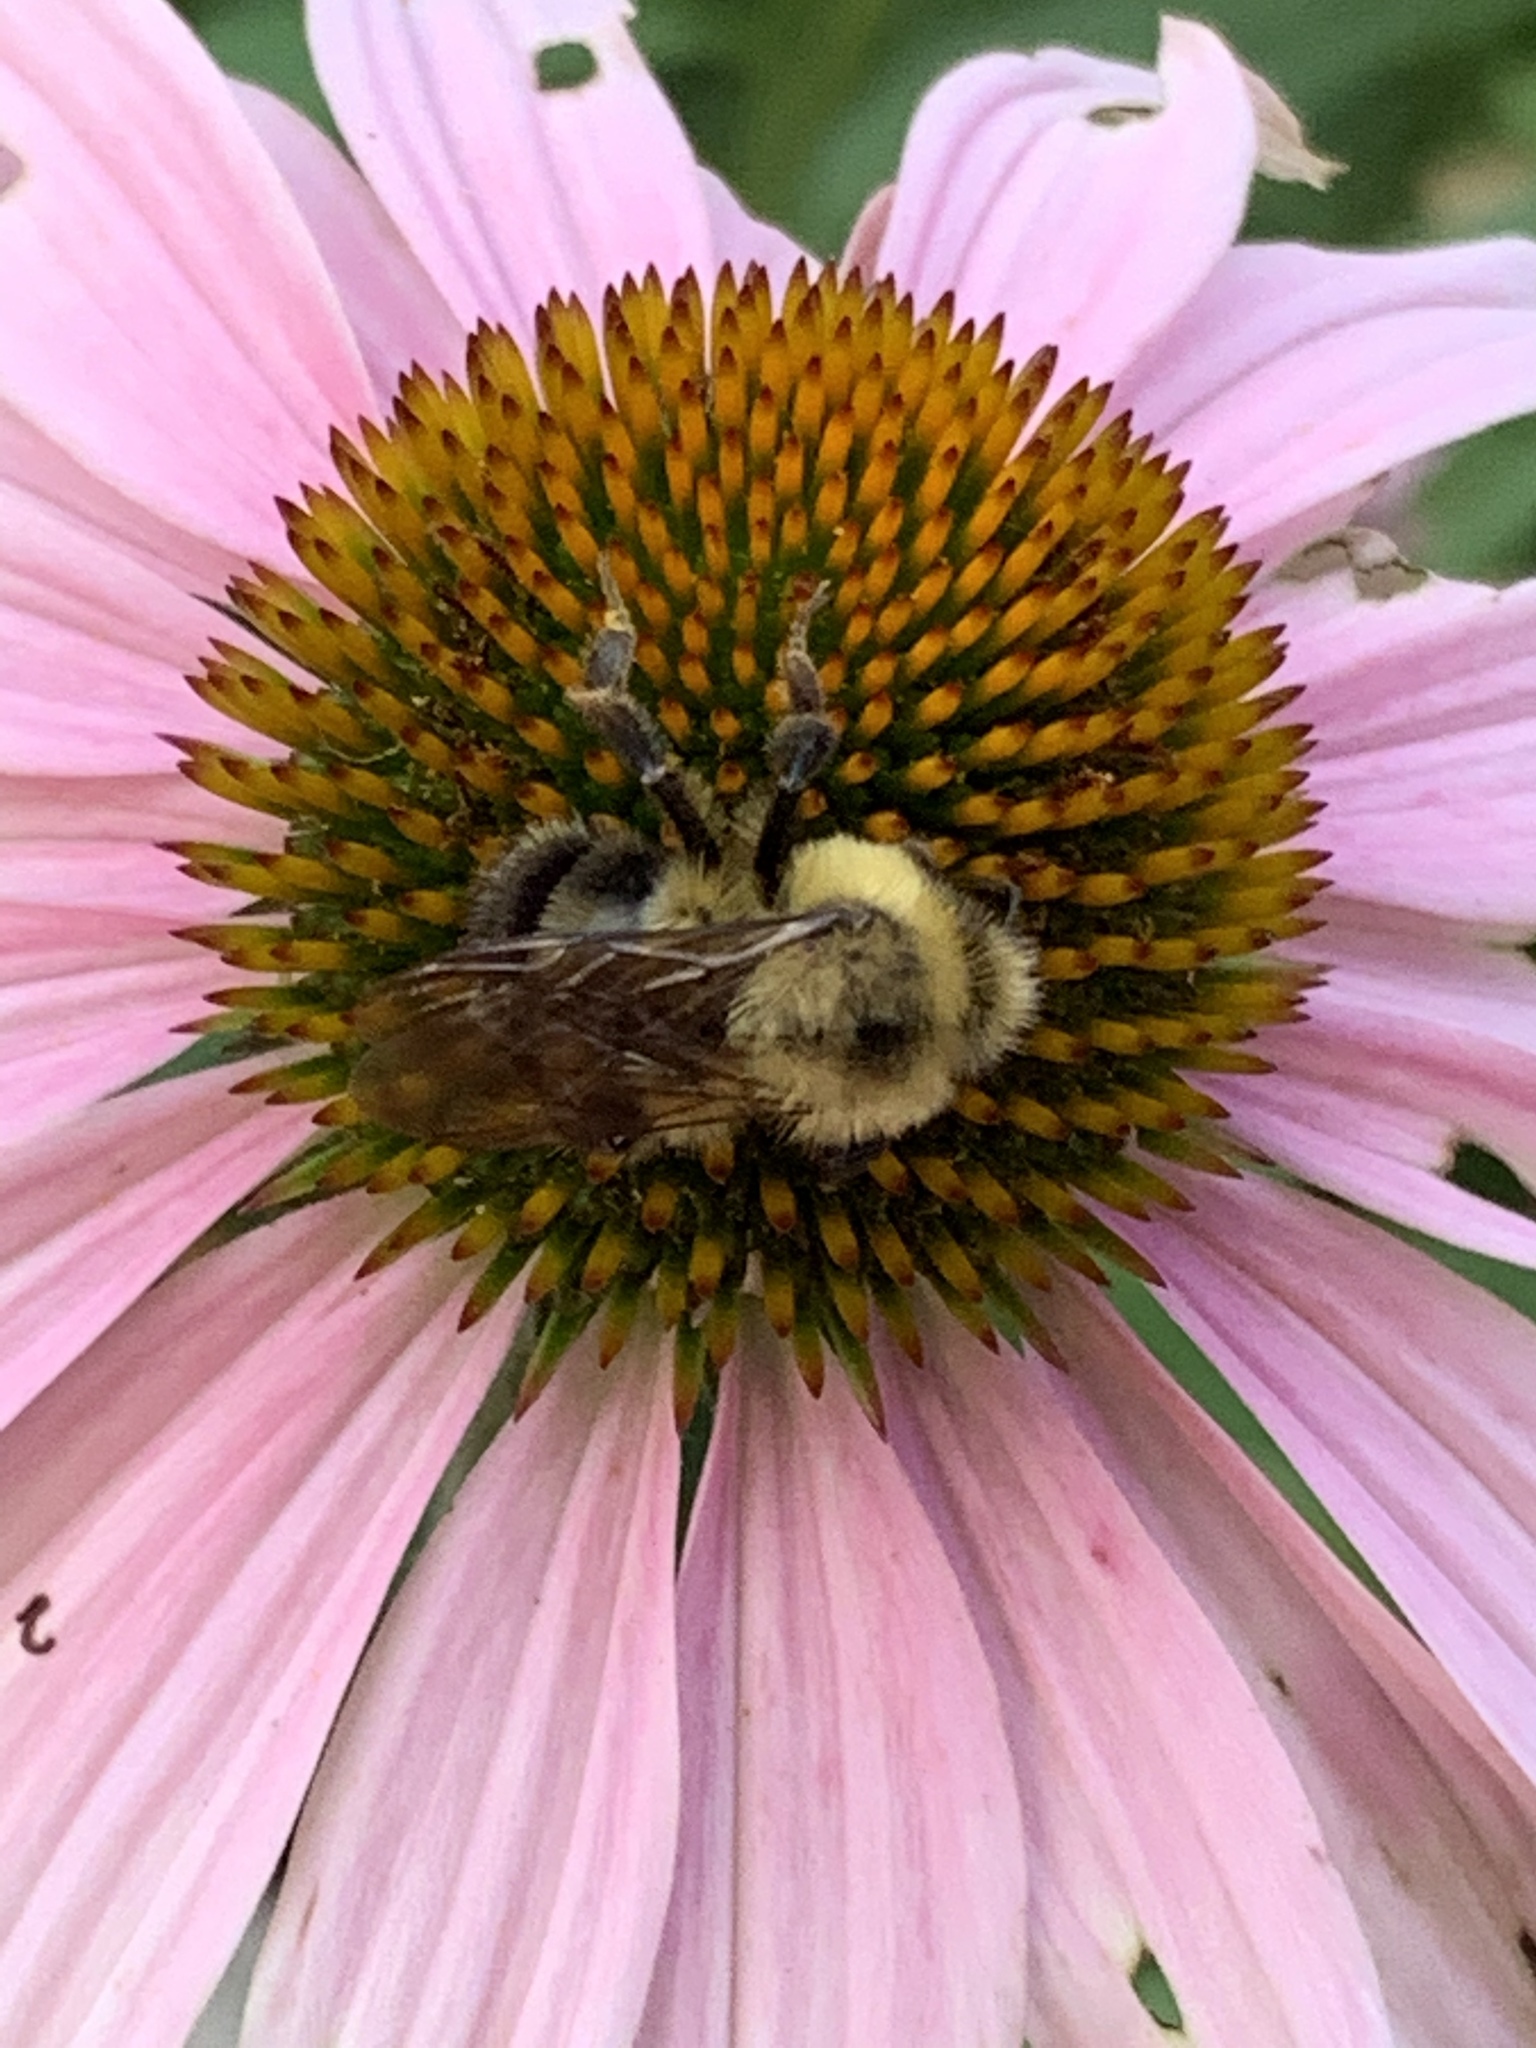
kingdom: Animalia
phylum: Arthropoda
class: Insecta
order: Hymenoptera
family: Apidae
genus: Bombus
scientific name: Bombus bimaculatus
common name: Two-spotted bumble bee
